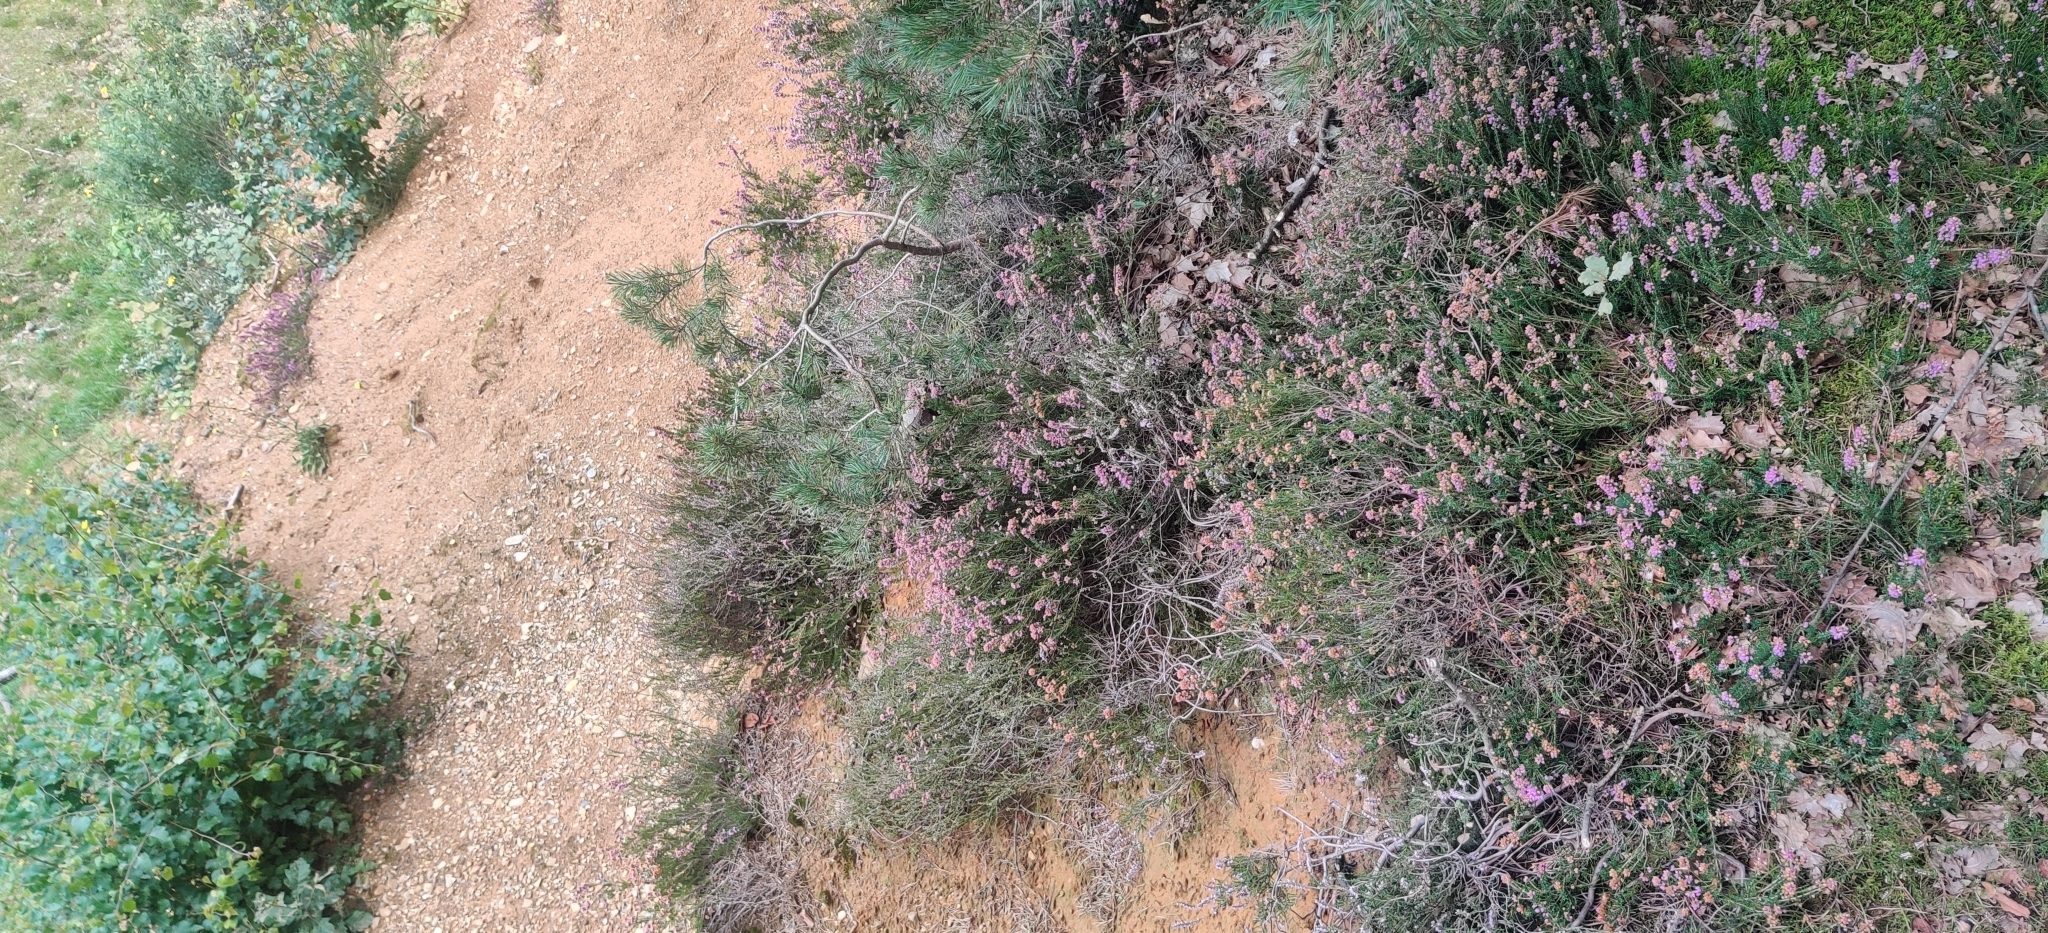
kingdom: Plantae
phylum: Tracheophyta
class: Magnoliopsida
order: Ericales
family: Ericaceae
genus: Erica
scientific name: Erica cinerea
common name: Bell heather
